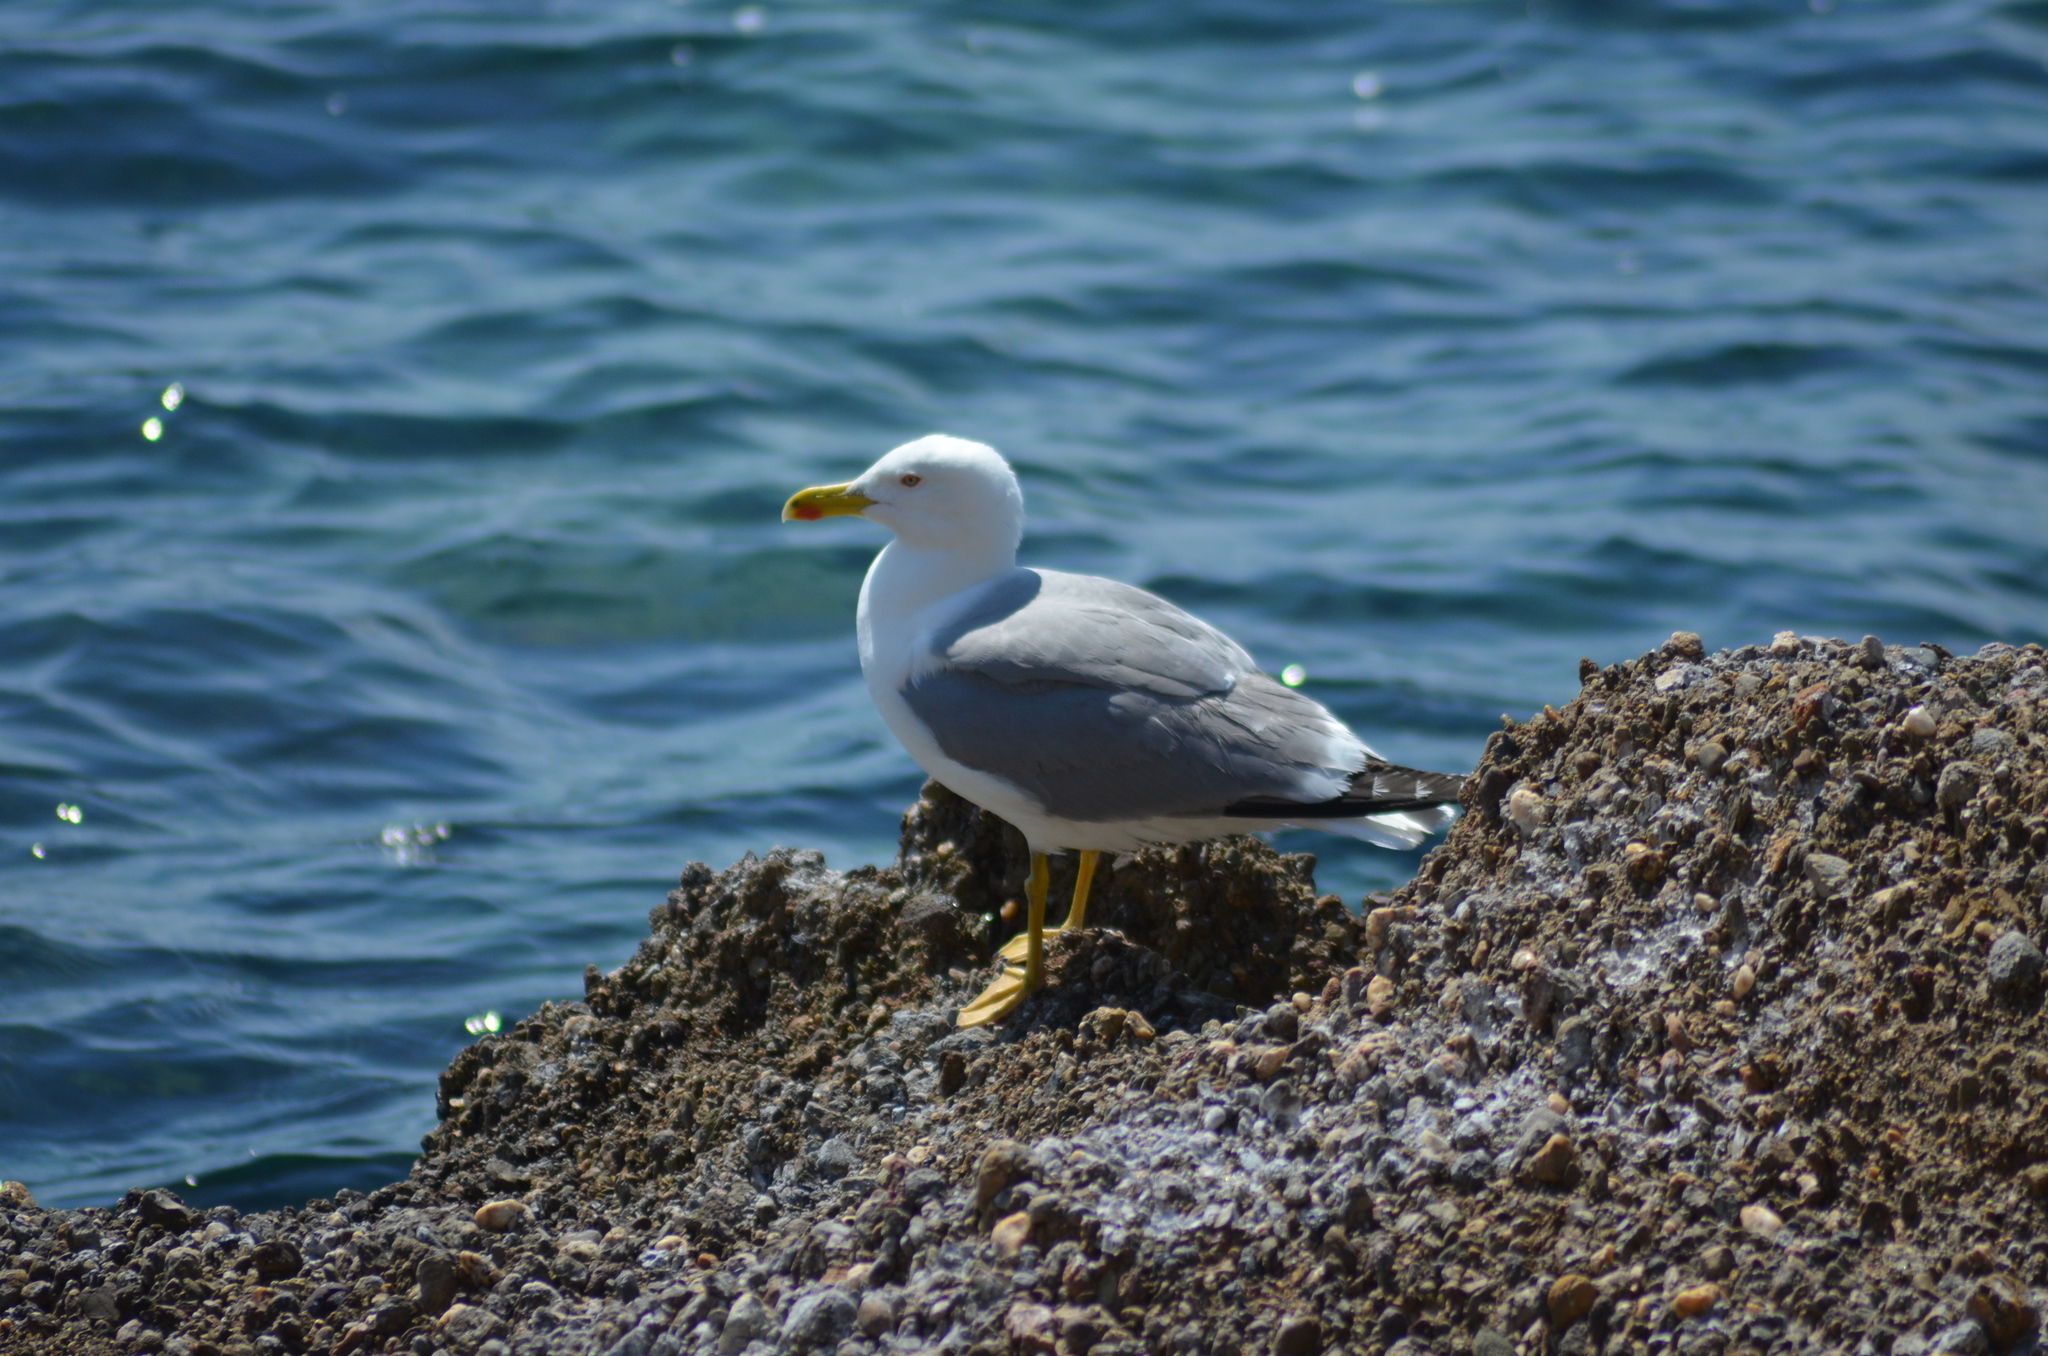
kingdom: Animalia
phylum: Chordata
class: Aves
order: Charadriiformes
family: Laridae
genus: Larus
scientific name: Larus michahellis
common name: Yellow-legged gull
